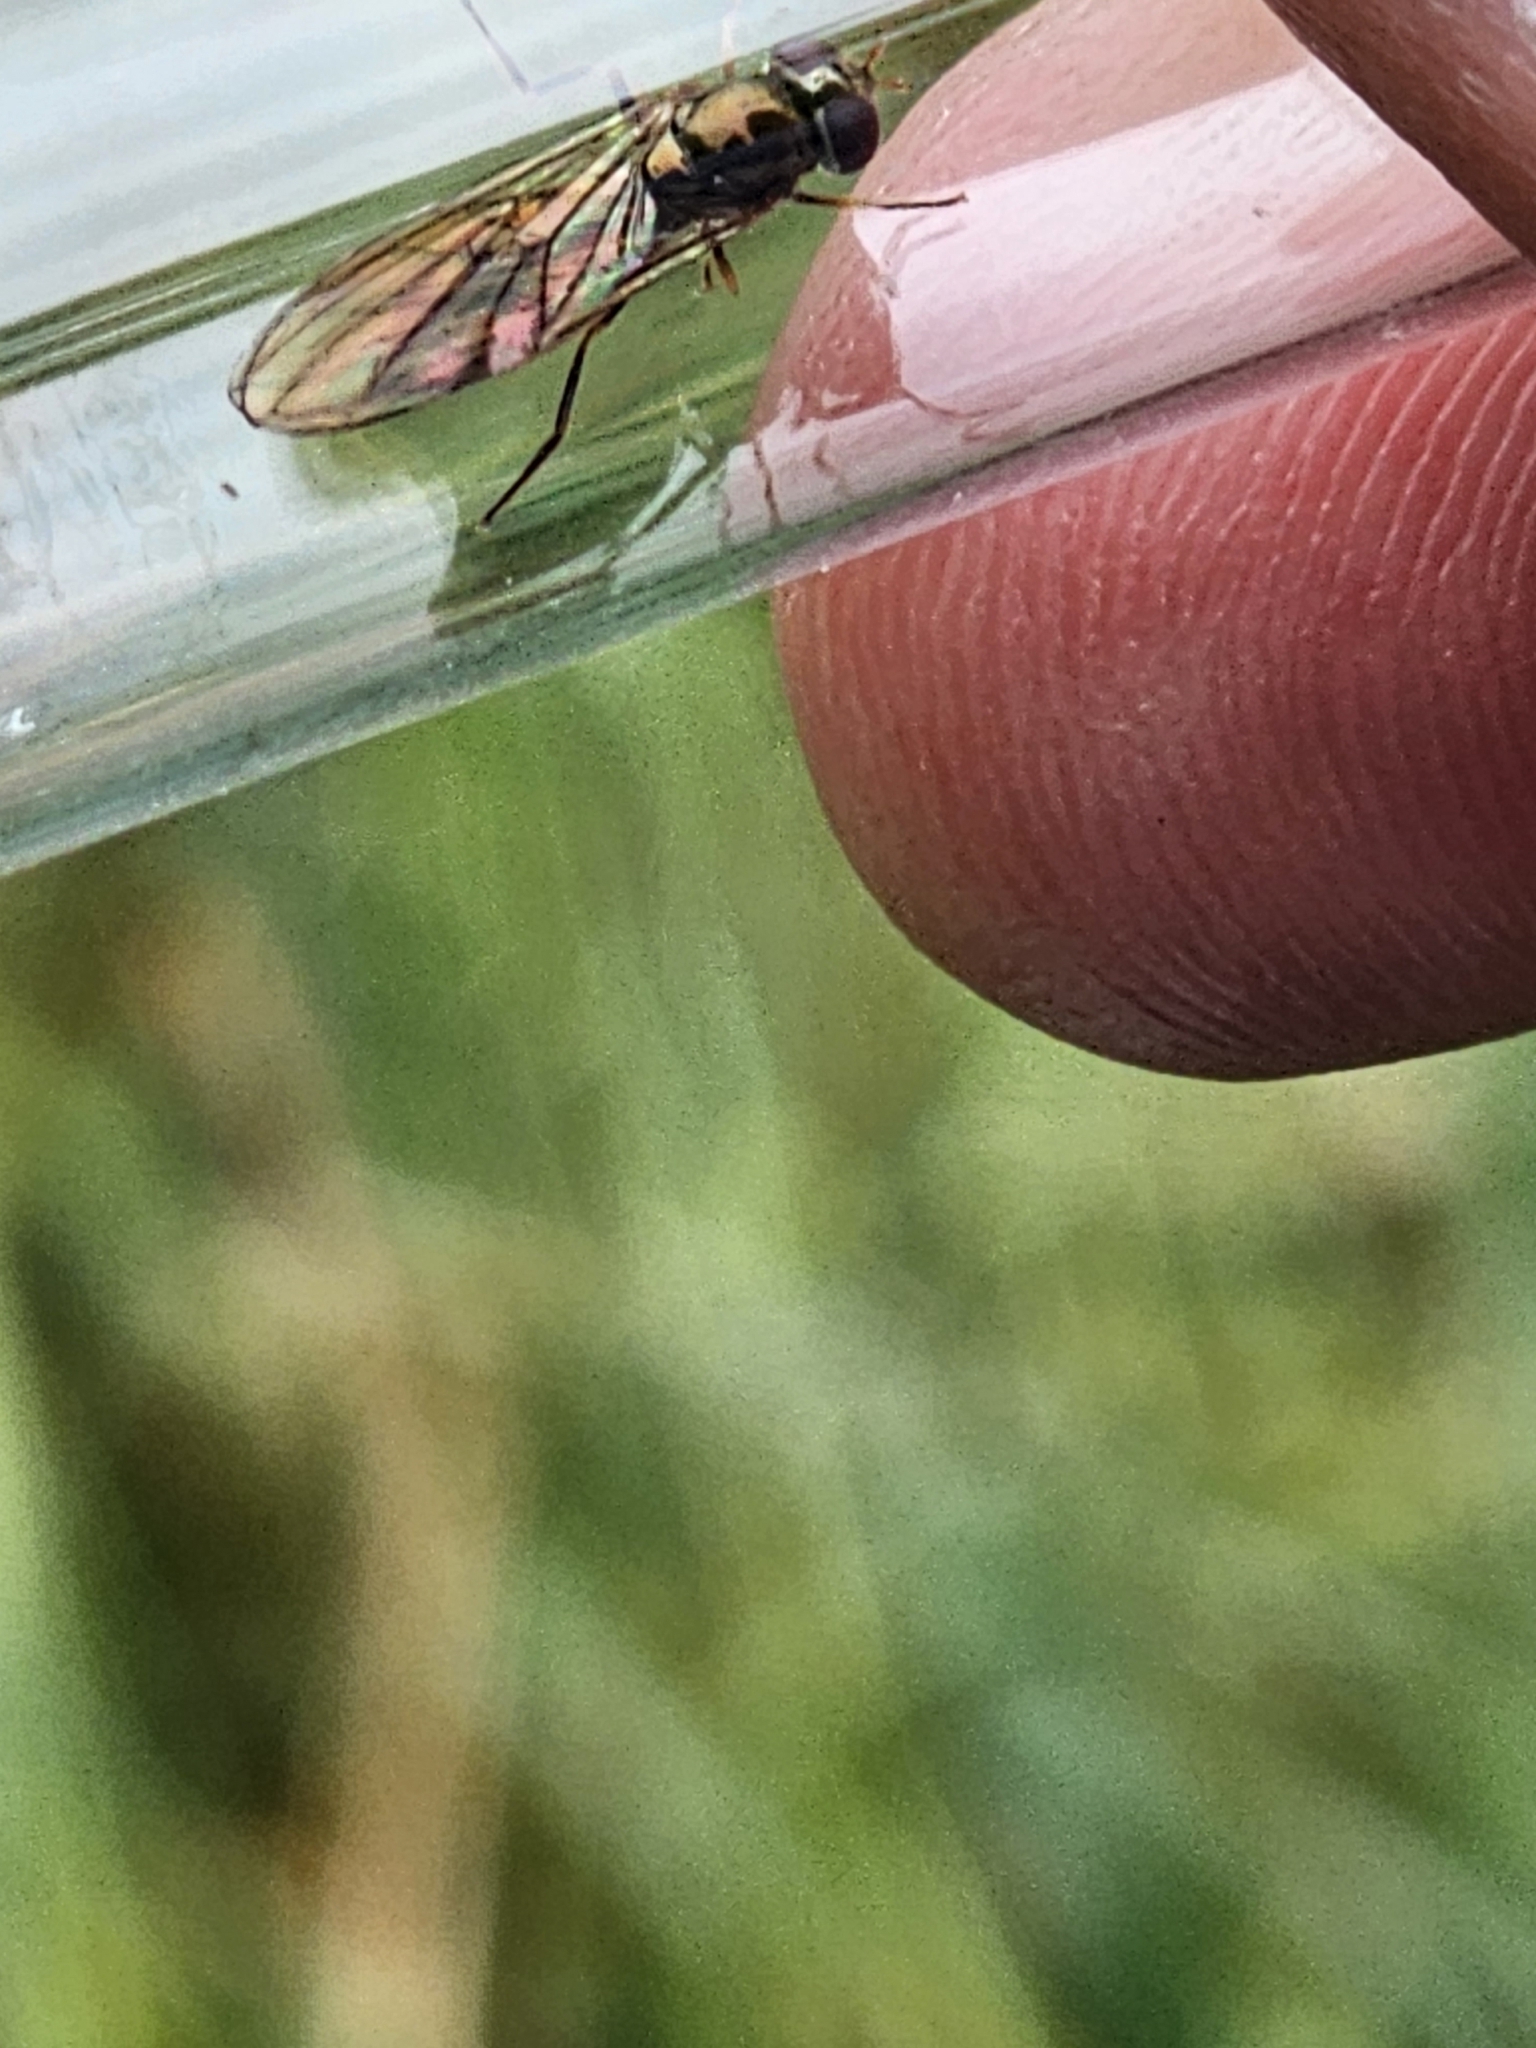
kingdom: Animalia
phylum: Arthropoda
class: Insecta
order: Diptera
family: Syrphidae
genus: Melanostoma
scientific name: Melanostoma
